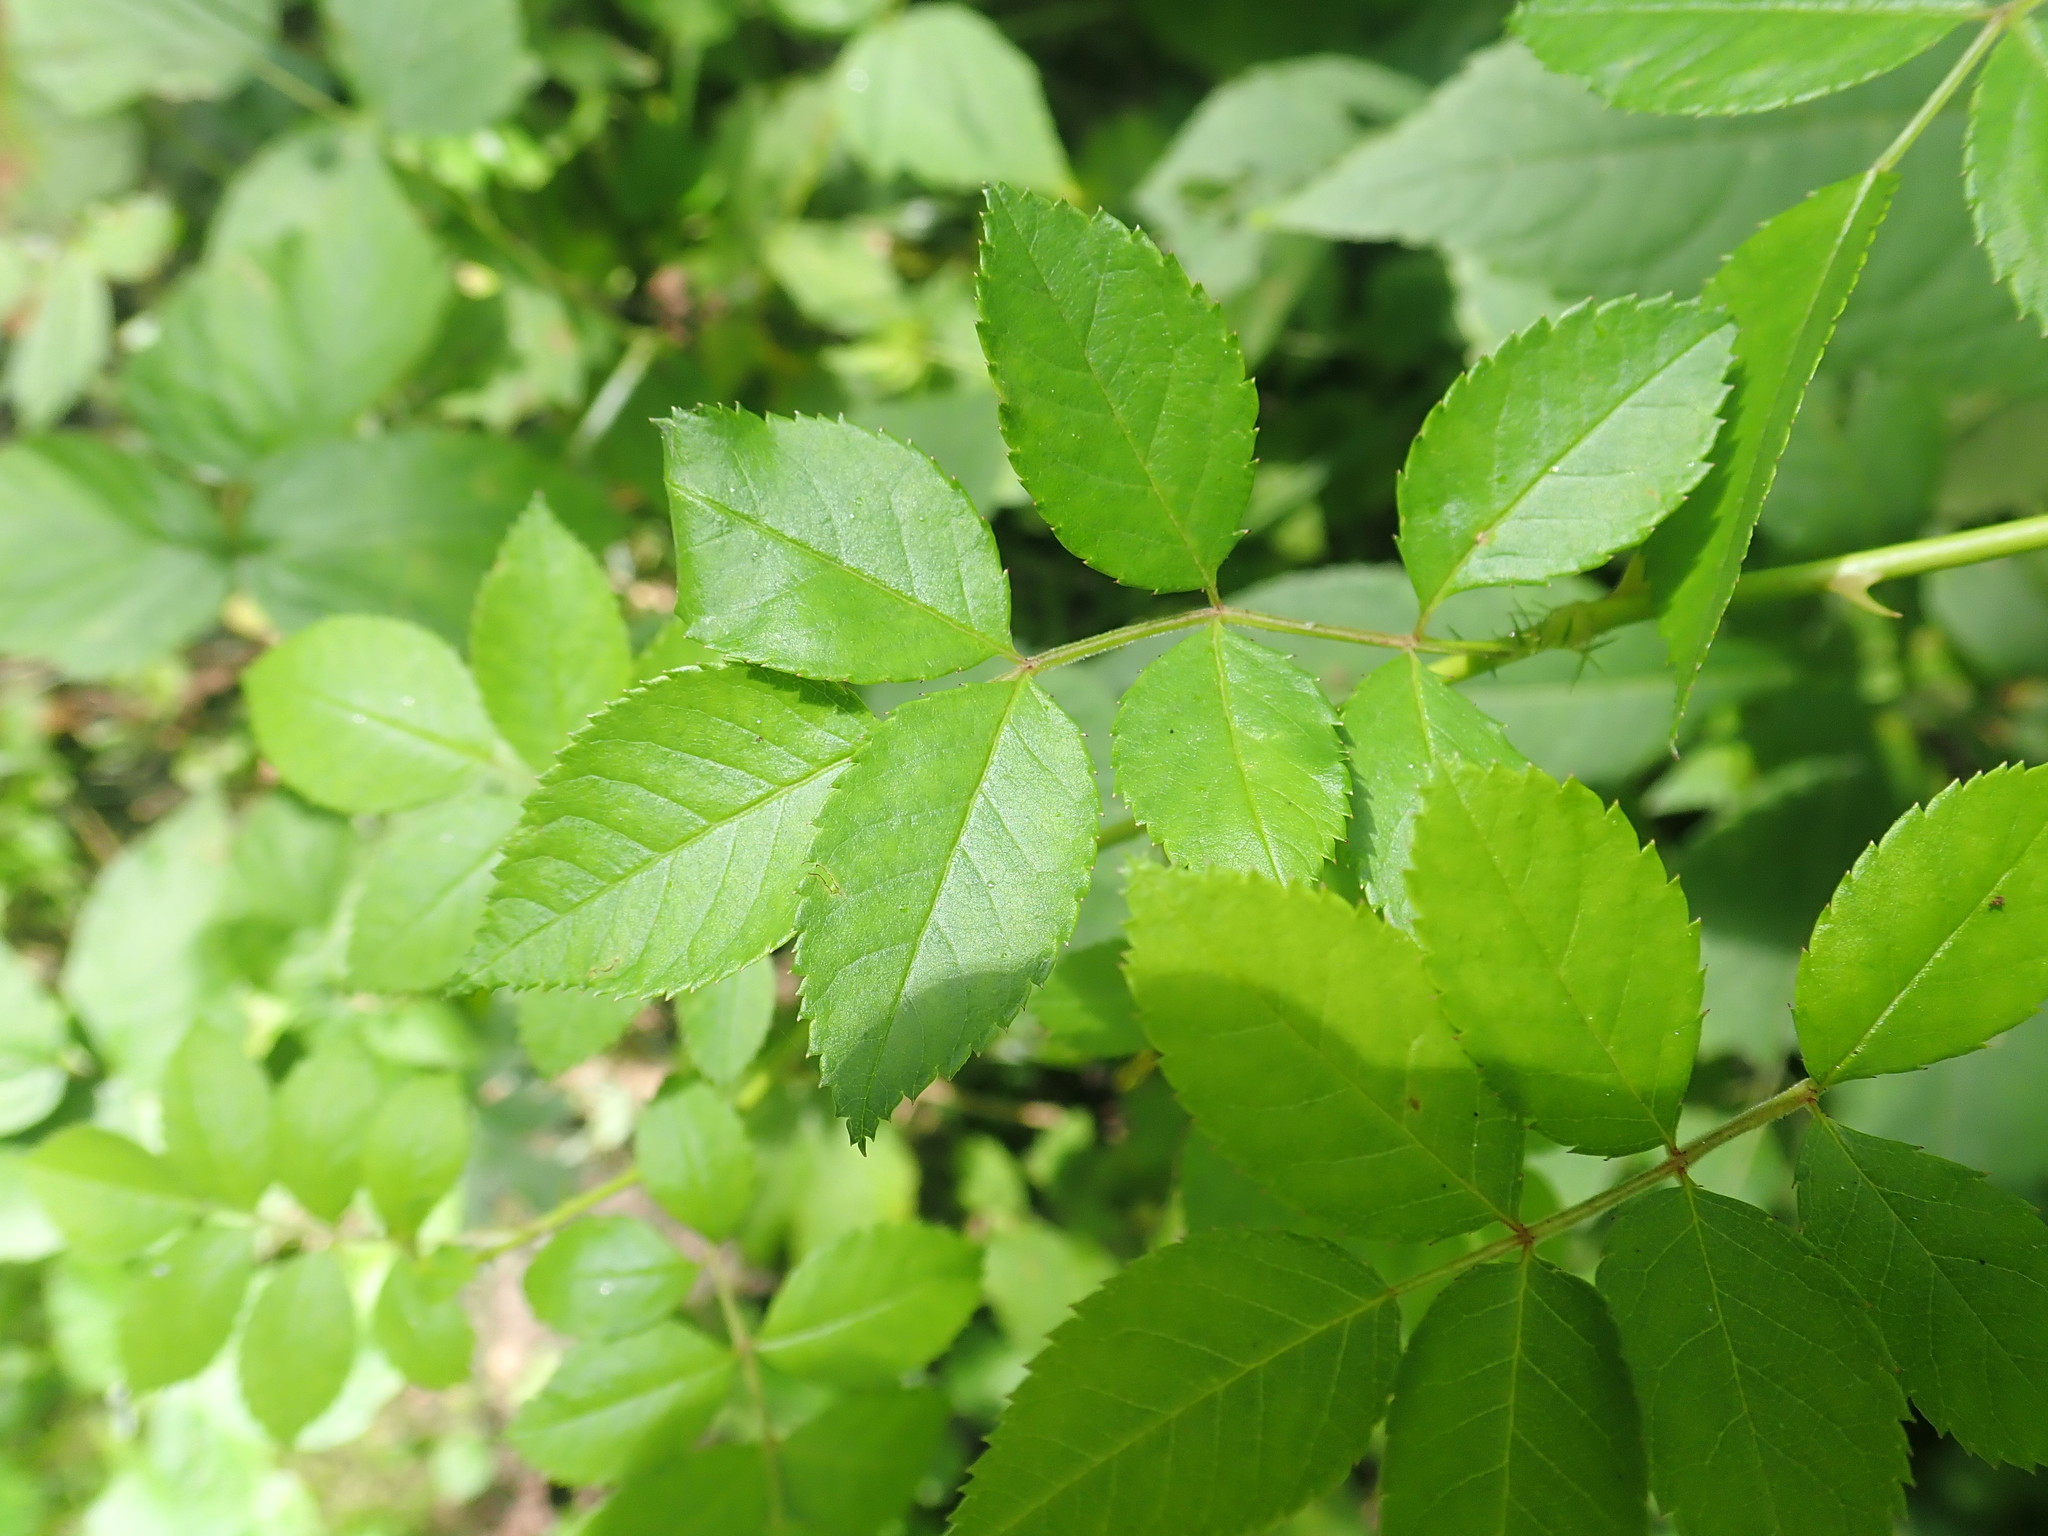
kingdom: Plantae
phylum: Tracheophyta
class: Magnoliopsida
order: Rosales
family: Rosaceae
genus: Rosa
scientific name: Rosa multiflora
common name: Multiflora rose
